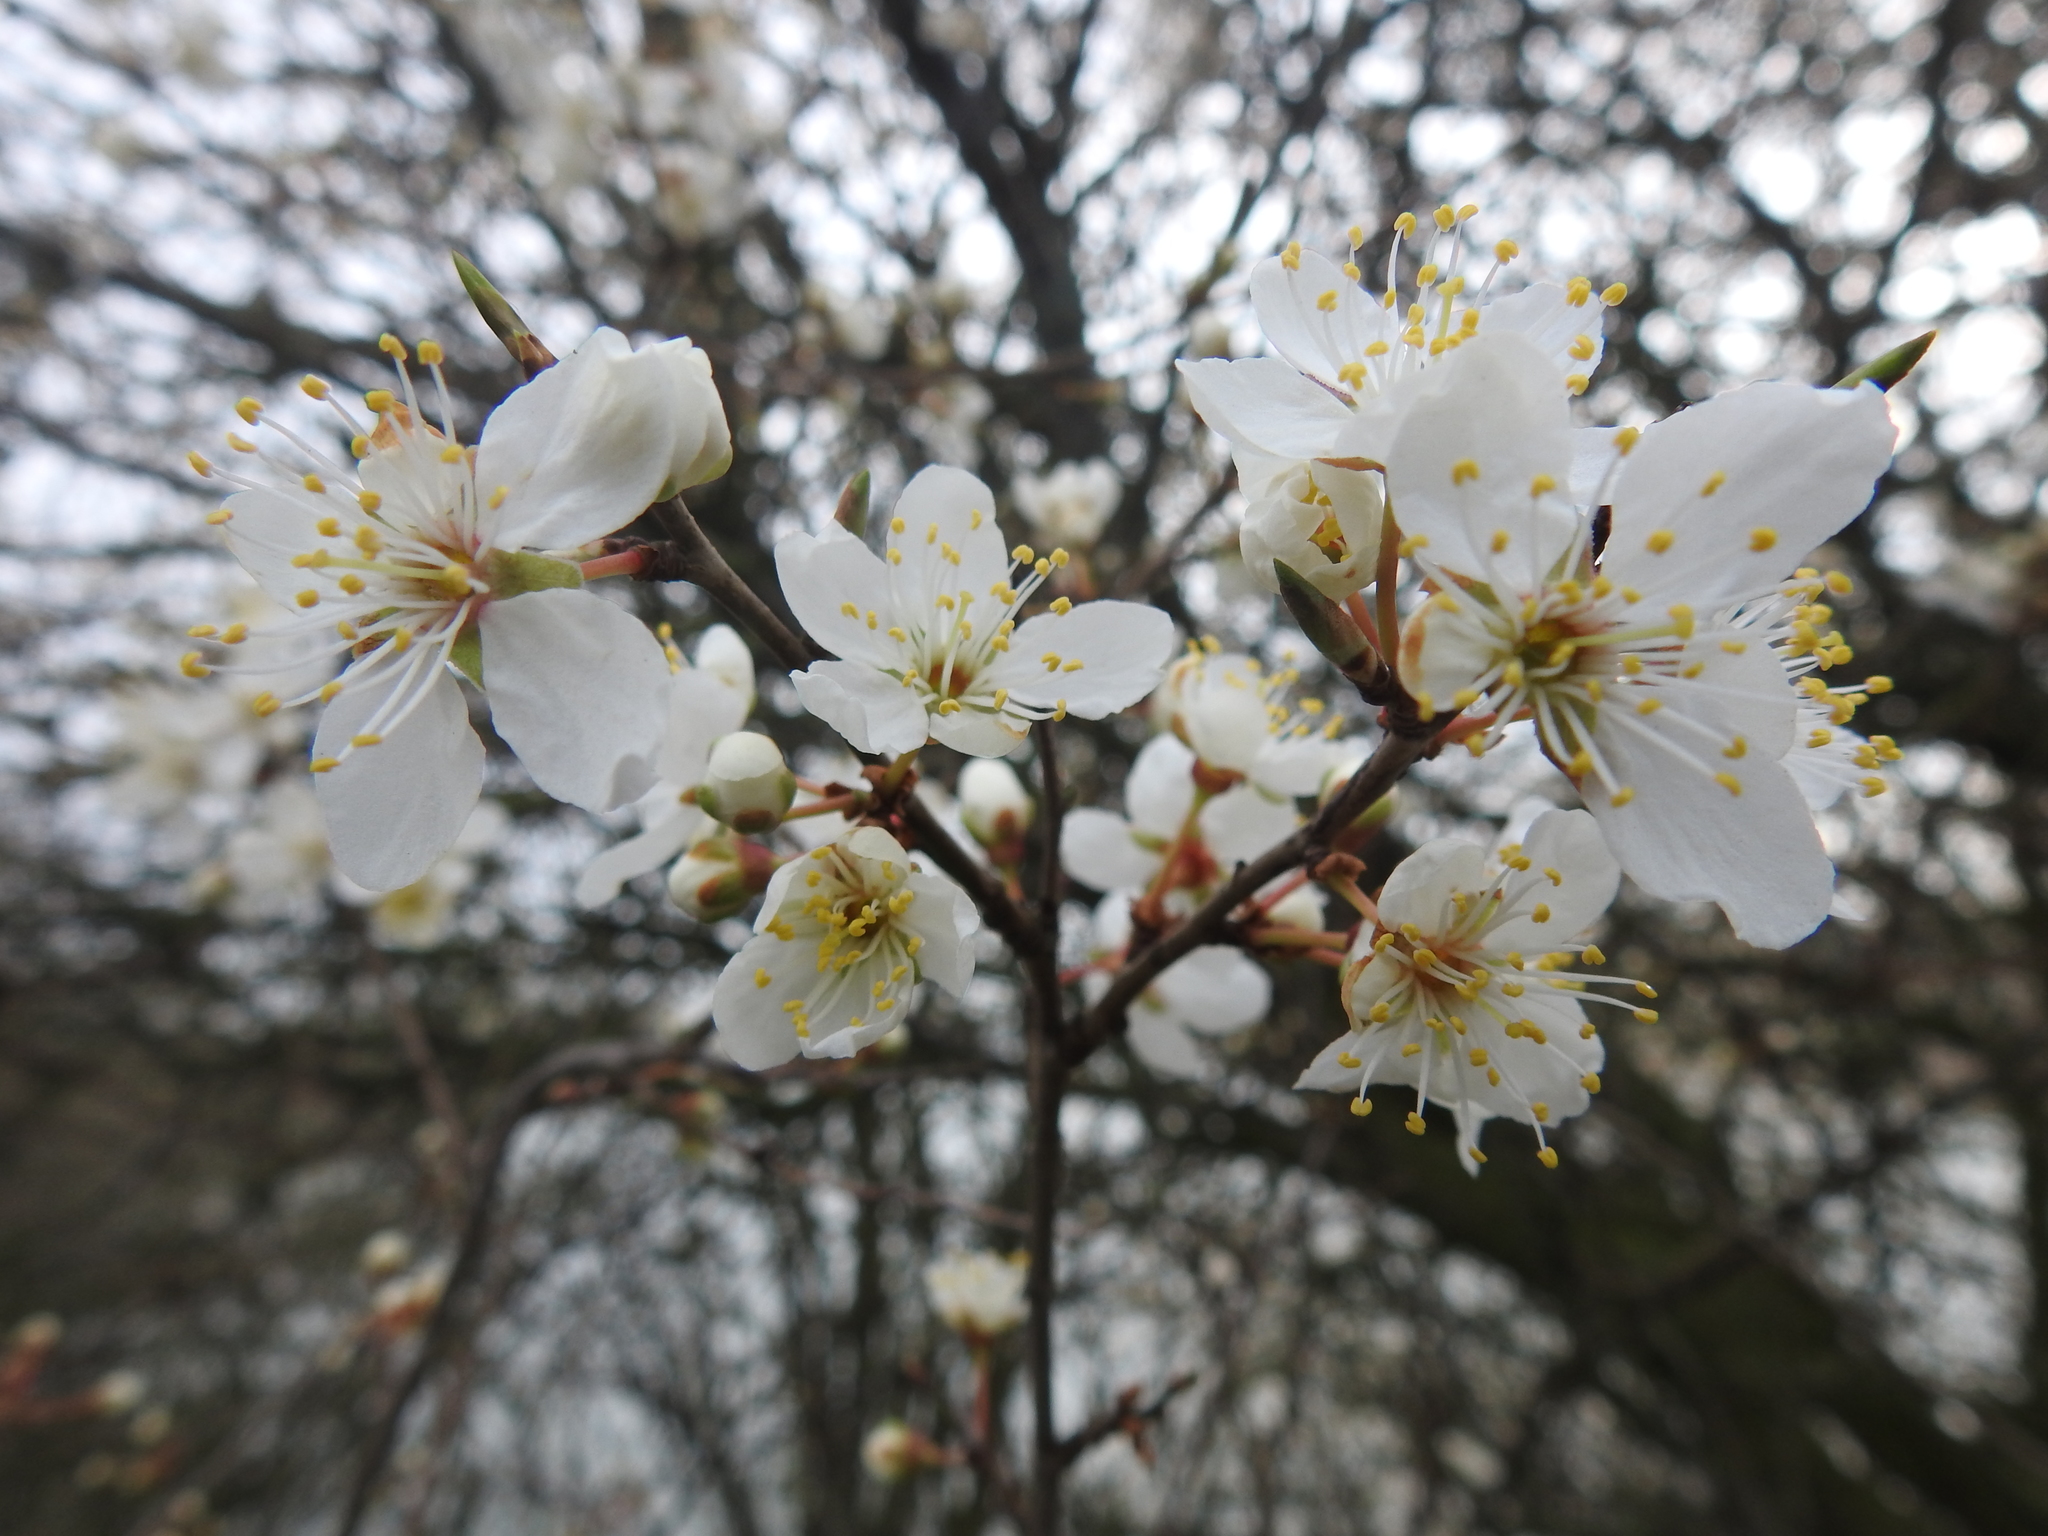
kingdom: Plantae
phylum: Tracheophyta
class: Magnoliopsida
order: Rosales
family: Rosaceae
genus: Prunus
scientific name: Prunus cerasifera
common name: Cherry plum
